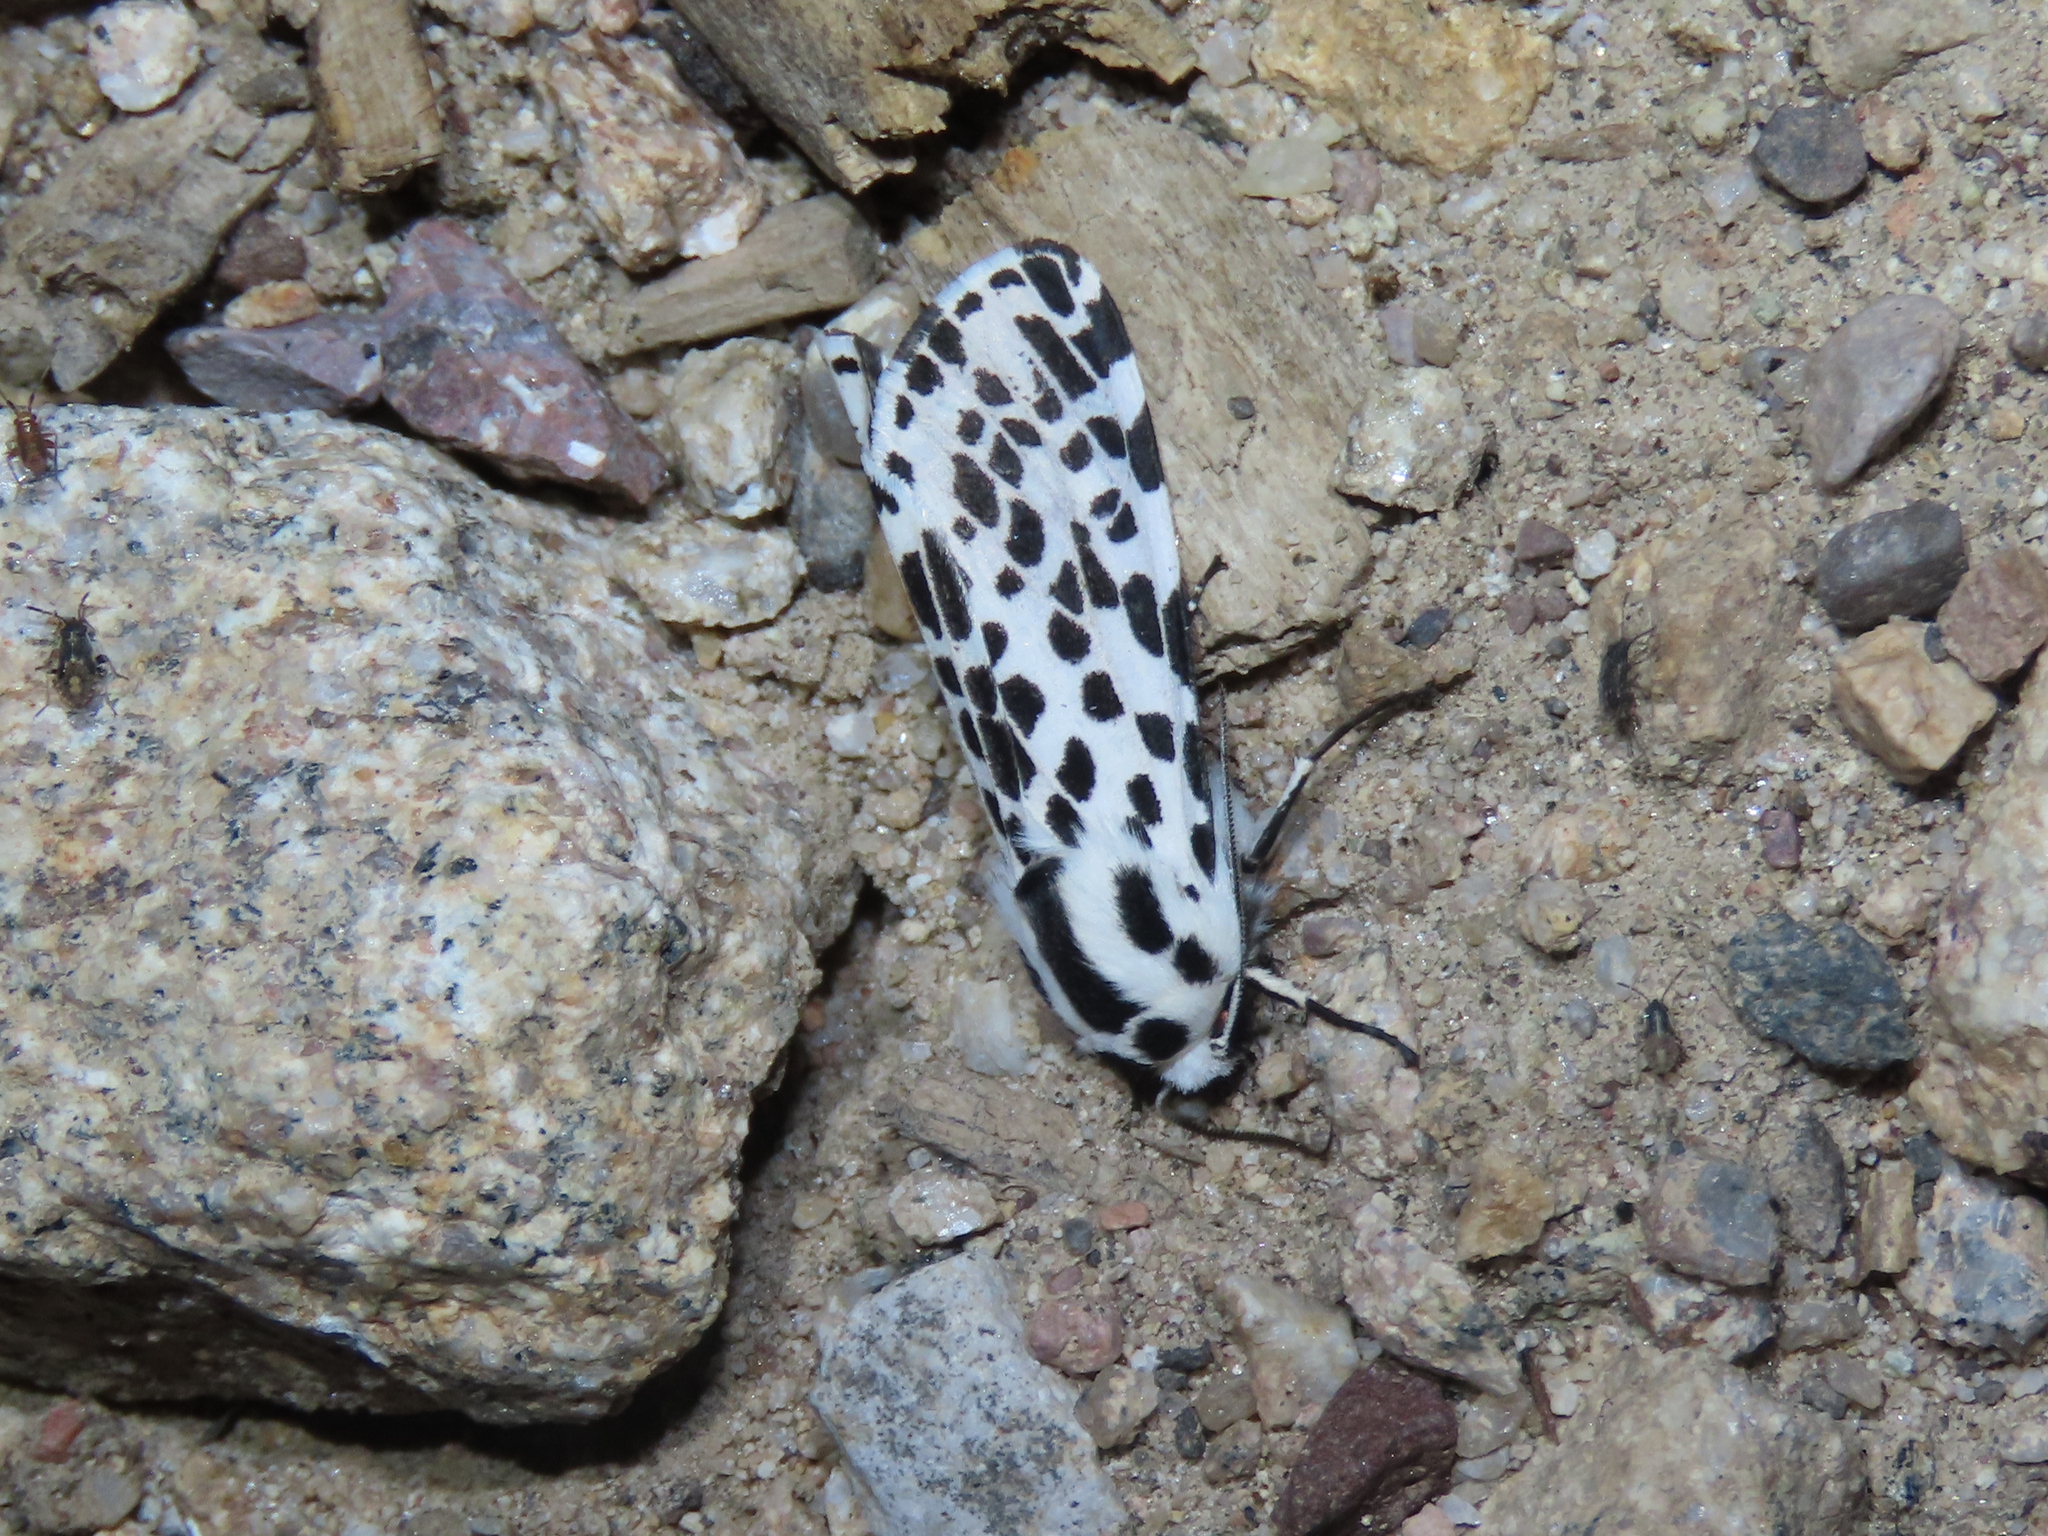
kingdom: Animalia
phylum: Arthropoda
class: Insecta
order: Lepidoptera
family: Erebidae
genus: Hypercompe
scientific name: Hypercompe permaculata
